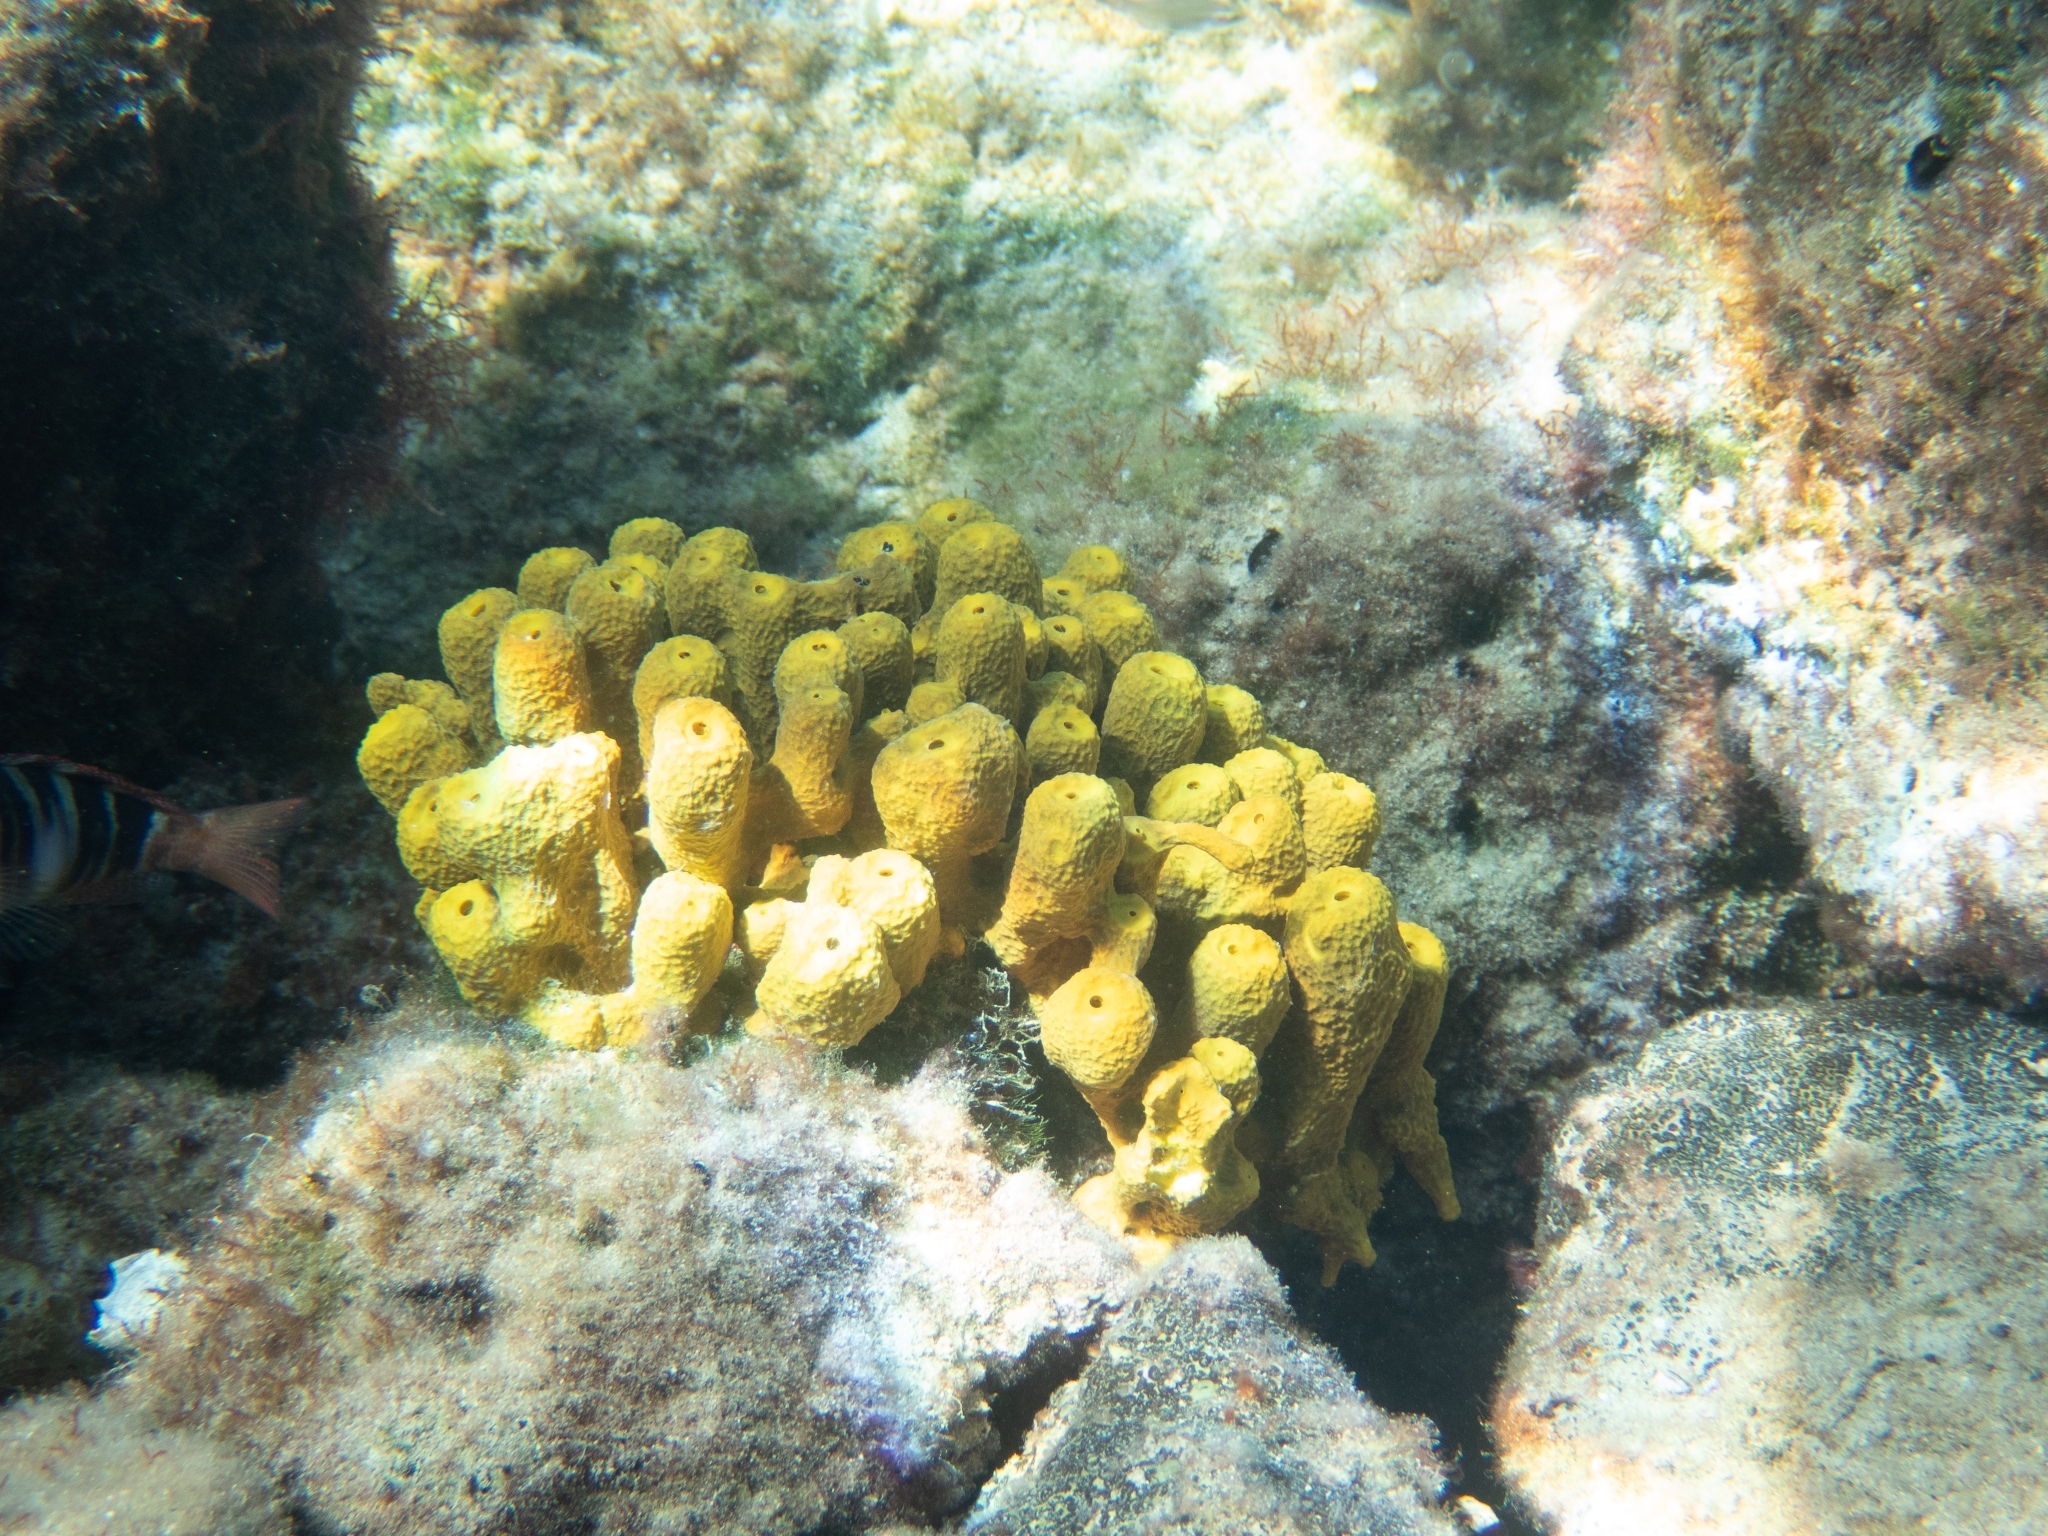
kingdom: Animalia
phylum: Porifera
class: Demospongiae
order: Verongiida
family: Aplysinidae
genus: Aplysina
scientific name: Aplysina aerophoba
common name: Aureate sponge
